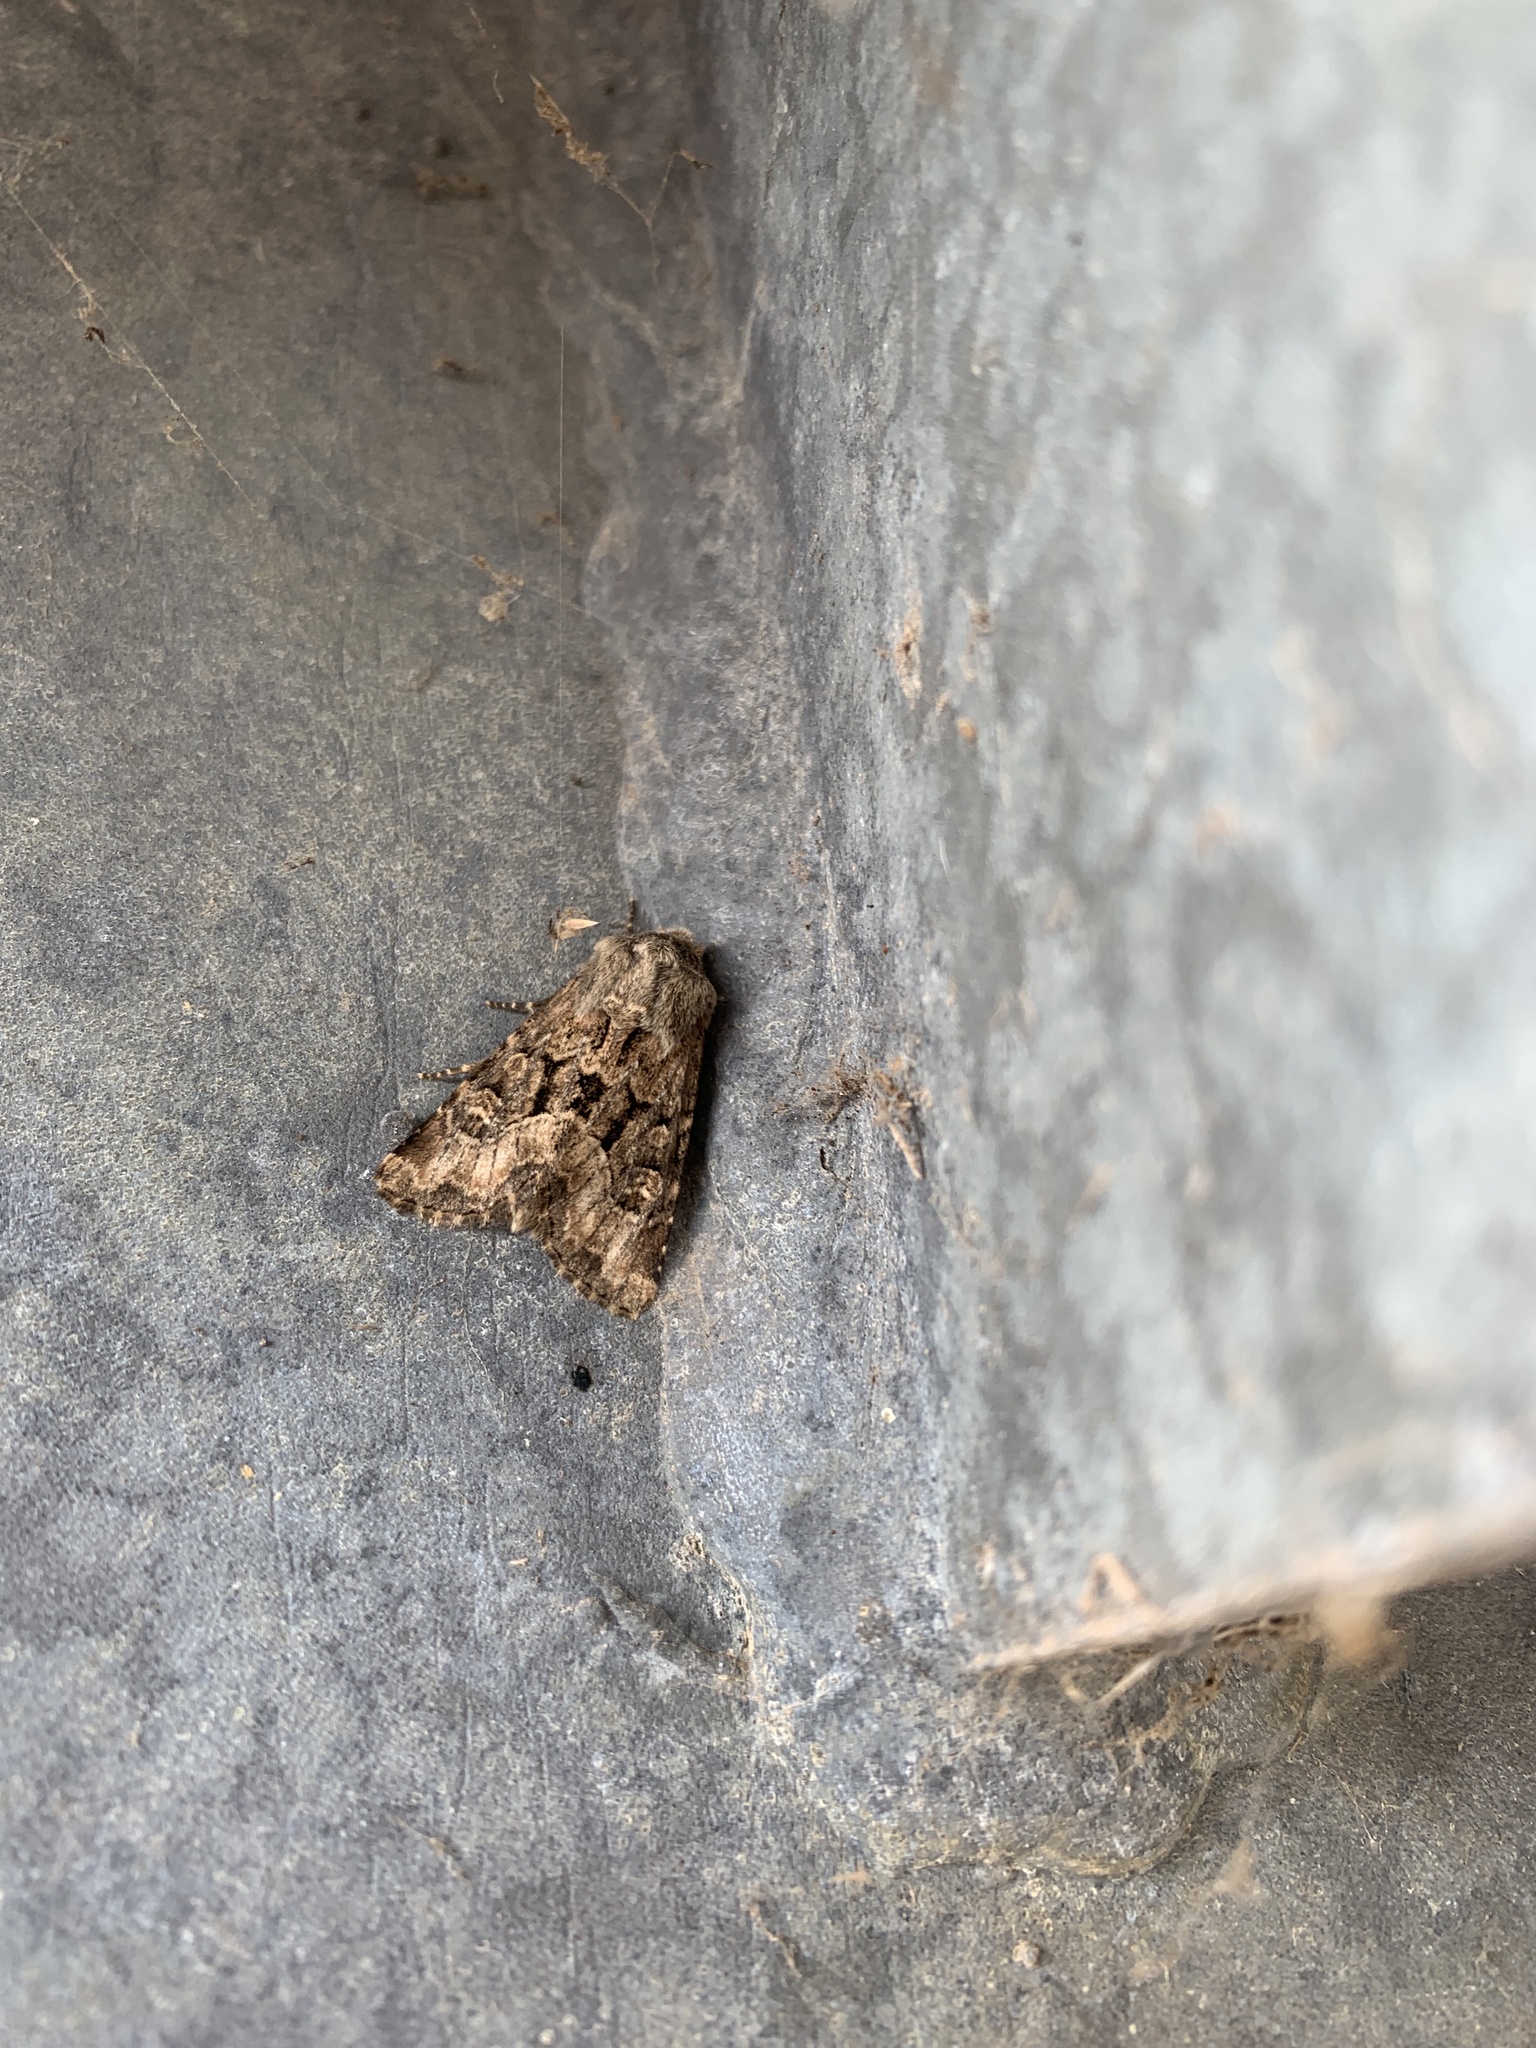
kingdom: Animalia
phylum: Arthropoda
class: Insecta
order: Lepidoptera
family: Noctuidae
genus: Luperina
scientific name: Luperina testacea
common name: Flounced rustic
